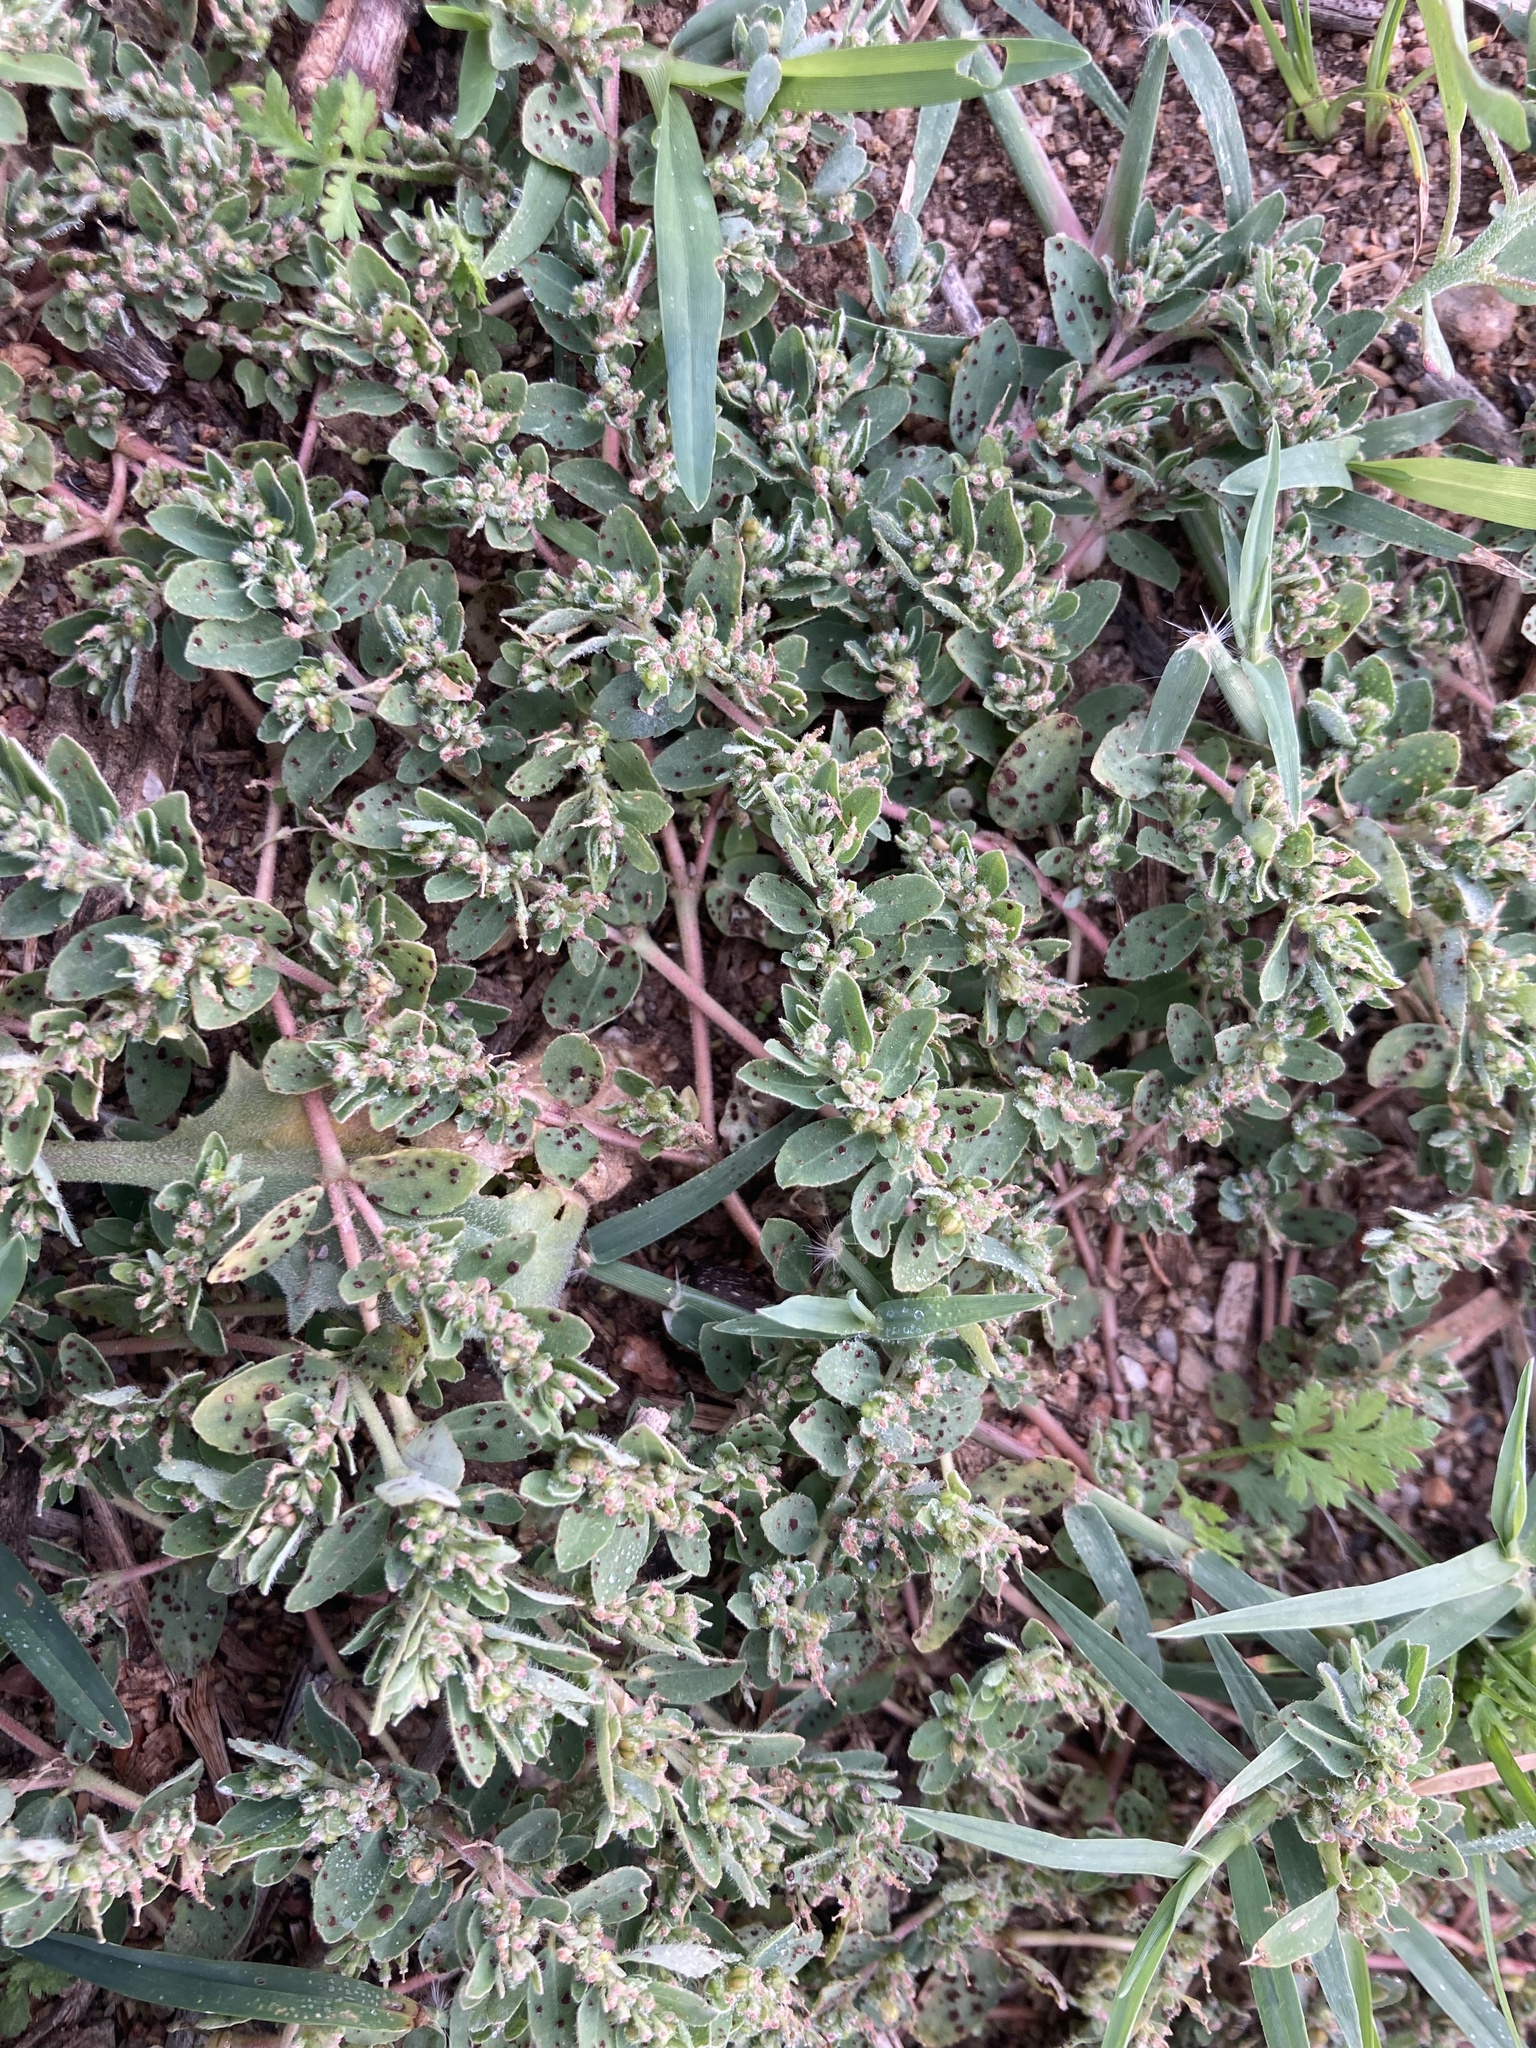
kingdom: Plantae
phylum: Tracheophyta
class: Magnoliopsida
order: Malpighiales
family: Euphorbiaceae
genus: Euphorbia
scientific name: Euphorbia prostrata
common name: Prostrate sandmat
